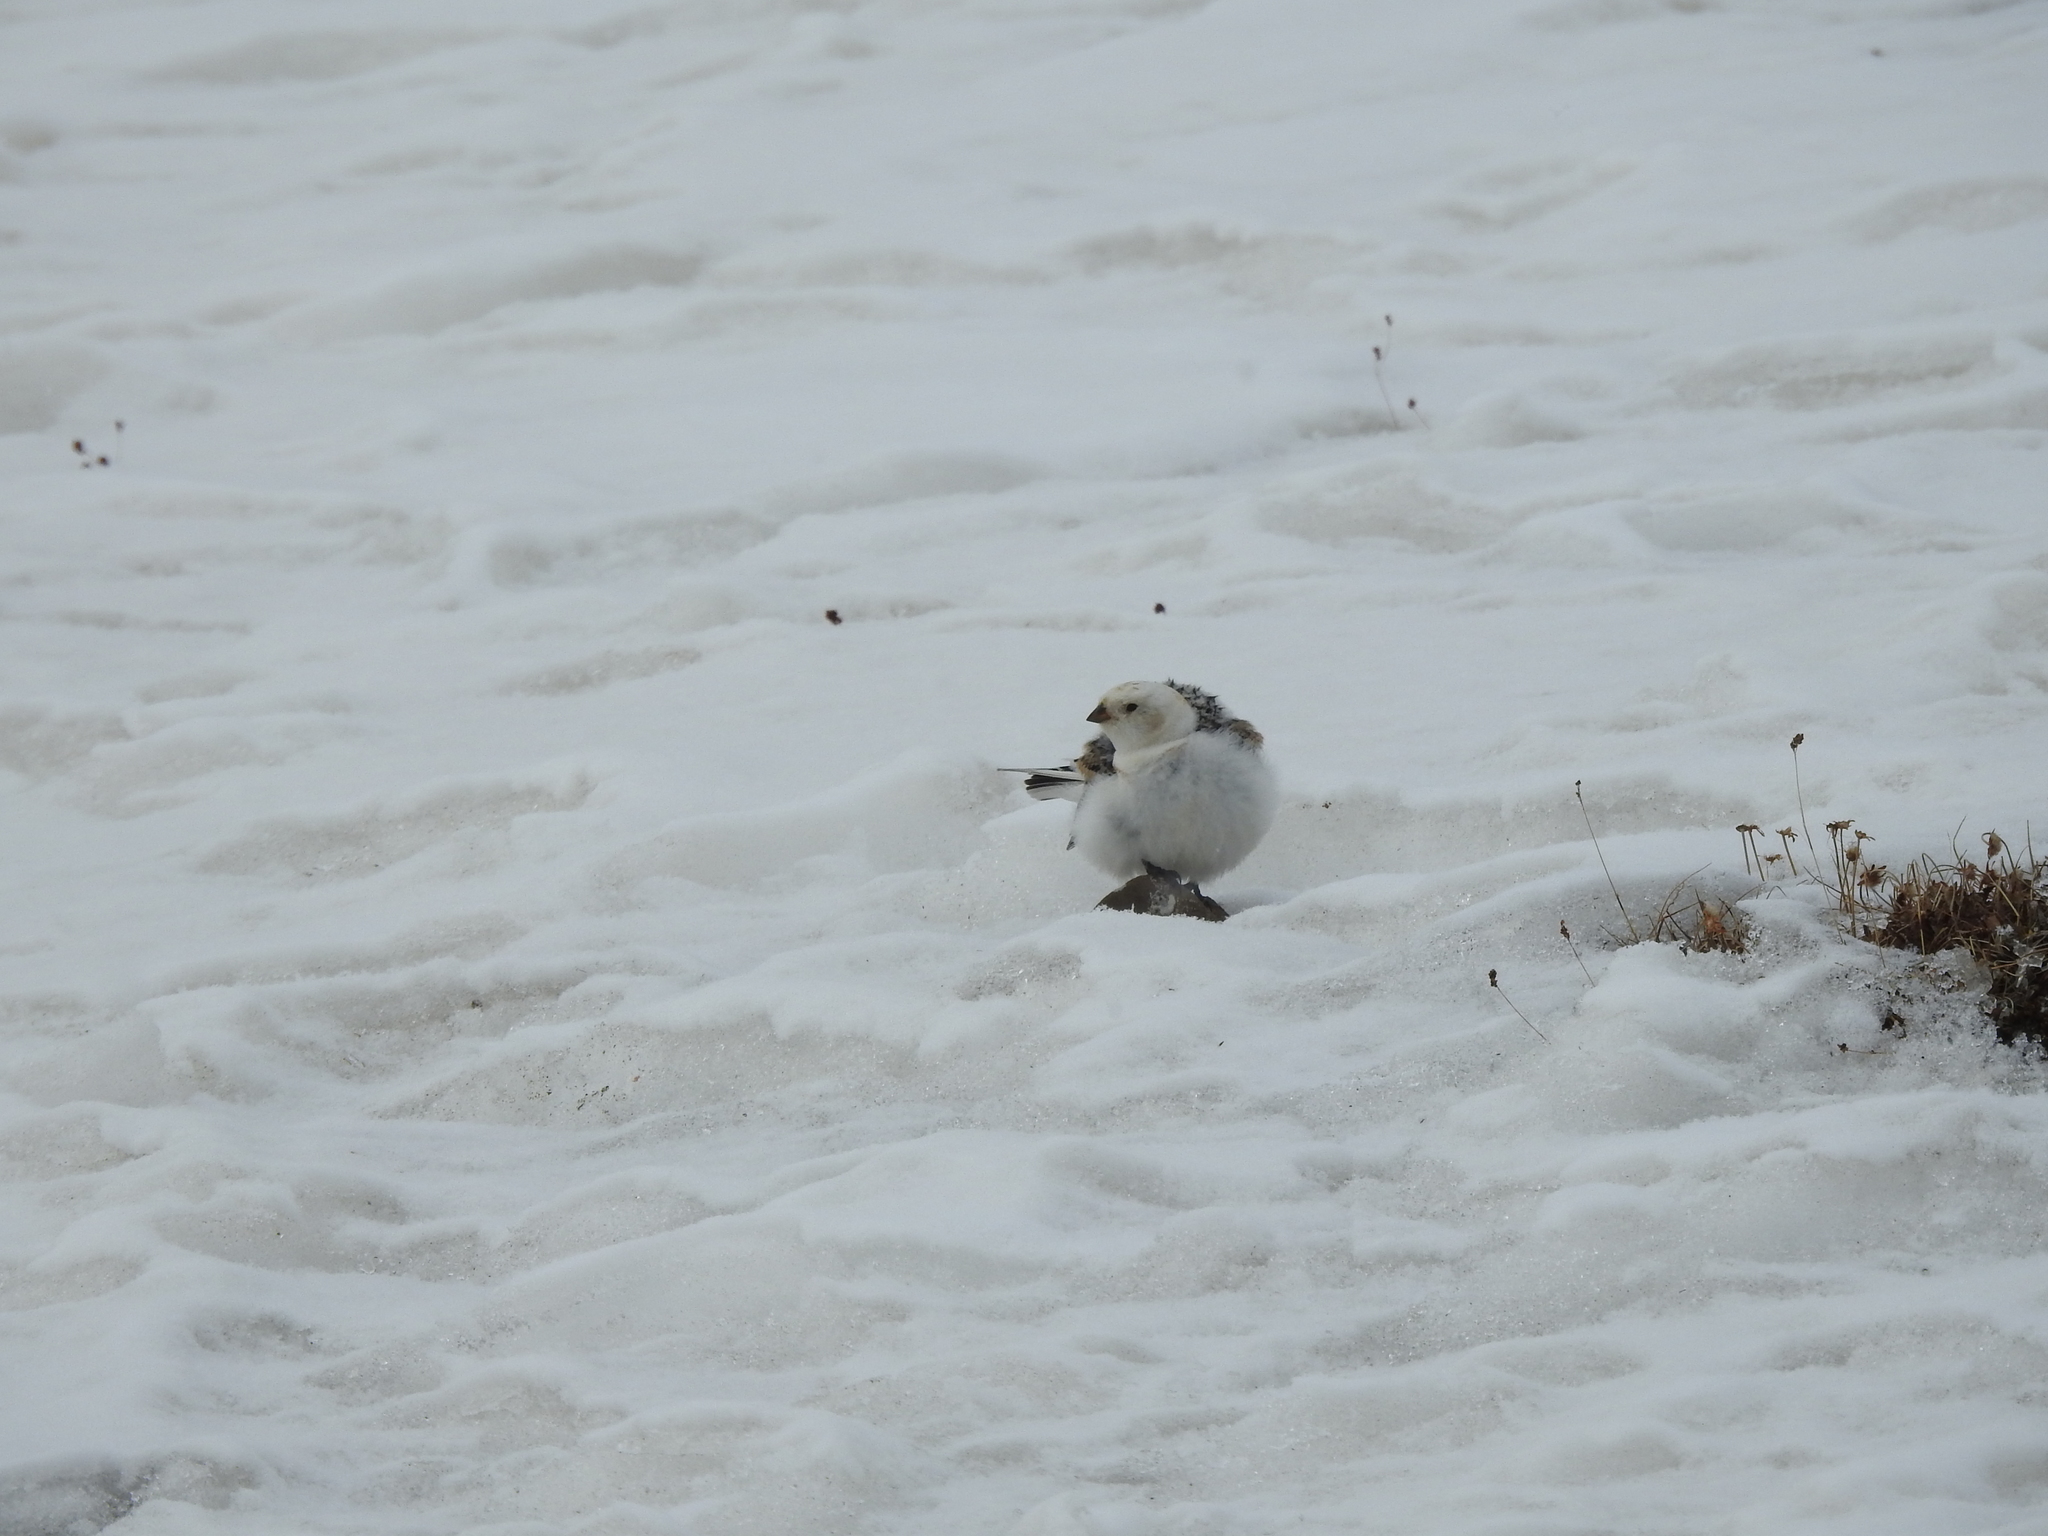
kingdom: Animalia
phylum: Chordata
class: Aves
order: Passeriformes
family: Calcariidae
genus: Plectrophenax
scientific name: Plectrophenax nivalis
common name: Snow bunting
